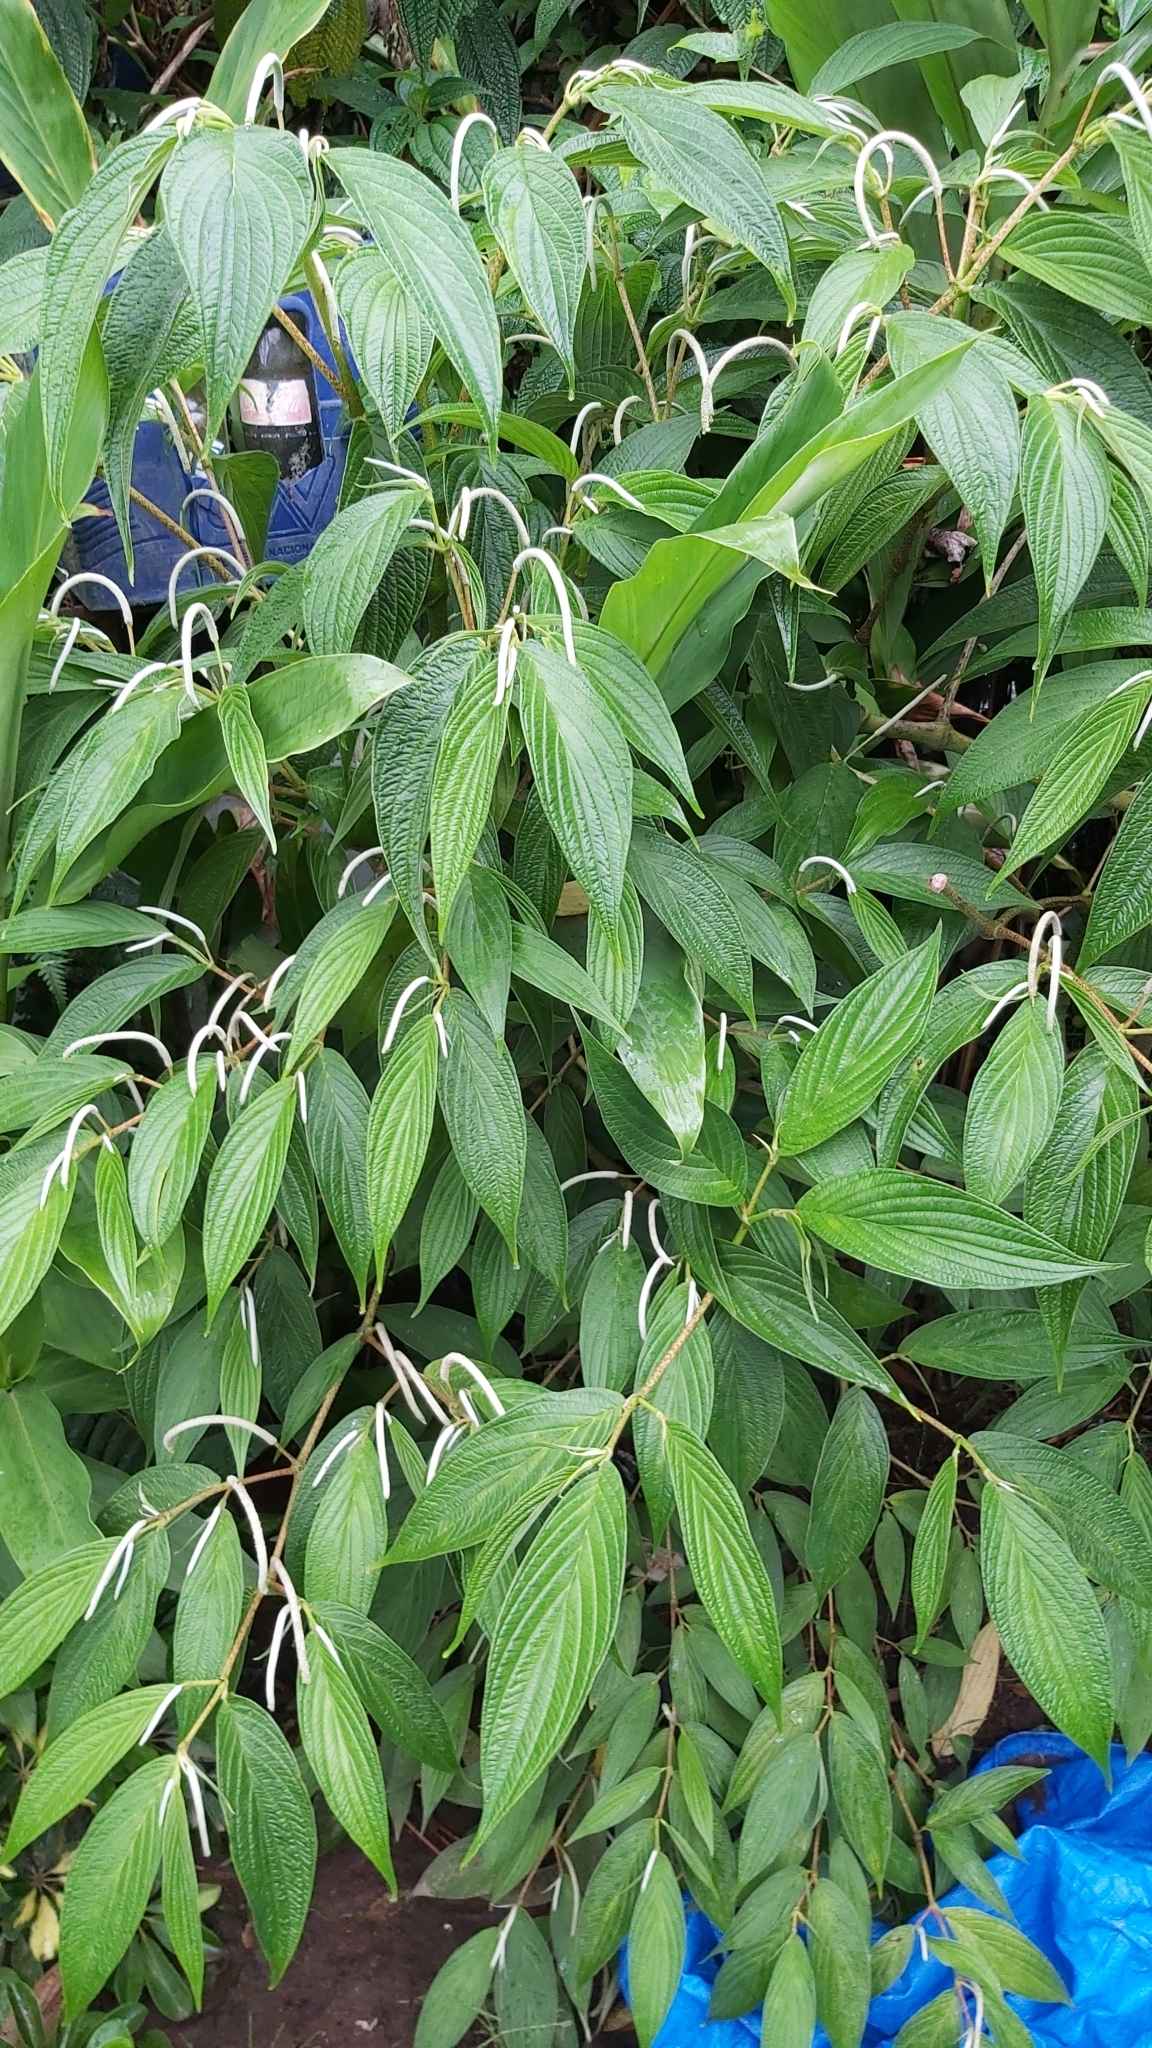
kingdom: Plantae
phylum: Tracheophyta
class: Magnoliopsida
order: Piperales
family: Piperaceae
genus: Piper
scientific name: Piper aduncum
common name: Spiked pepper
